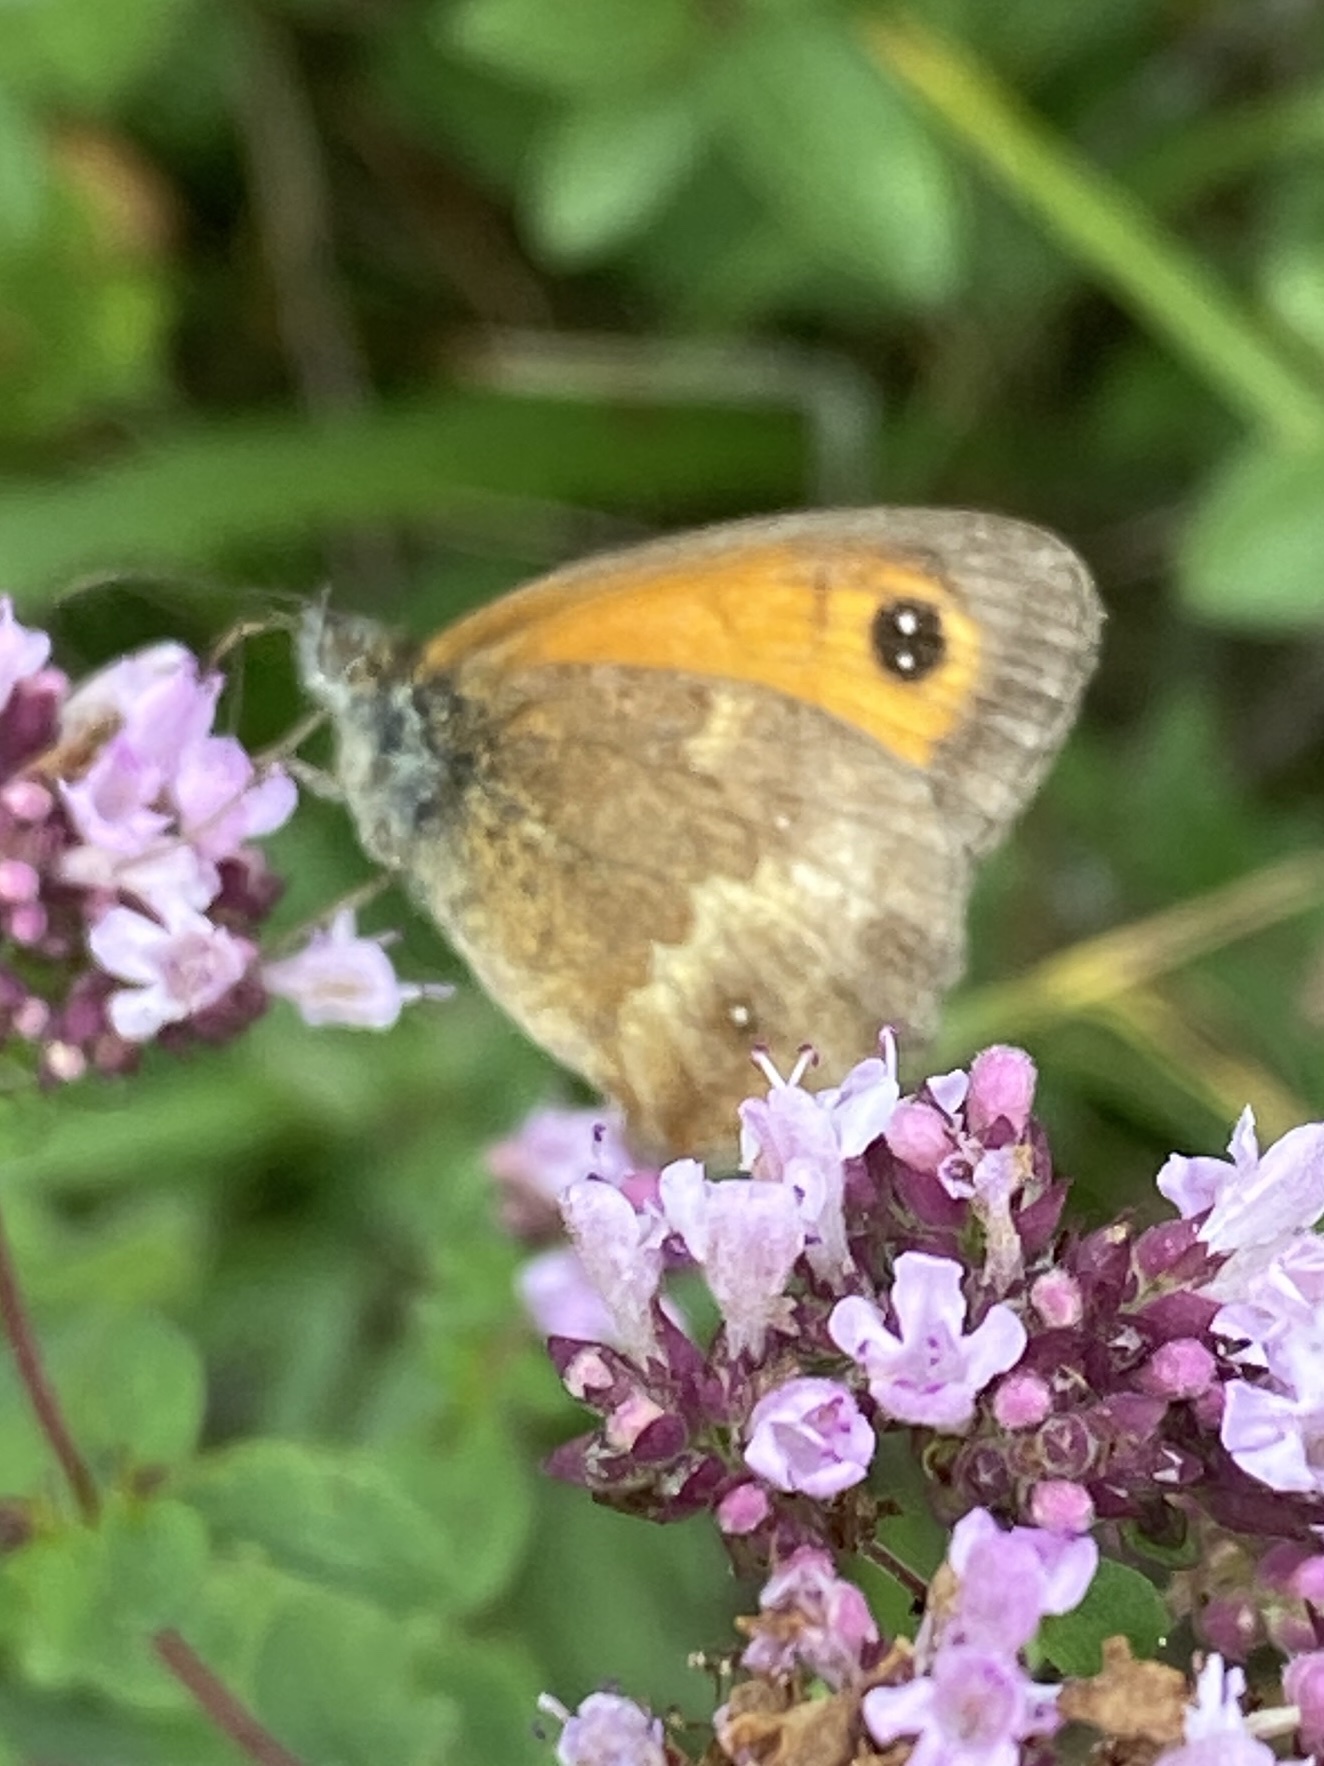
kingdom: Animalia
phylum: Arthropoda
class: Insecta
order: Lepidoptera
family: Nymphalidae
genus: Pyronia
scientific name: Pyronia tithonus
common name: Gatekeeper
